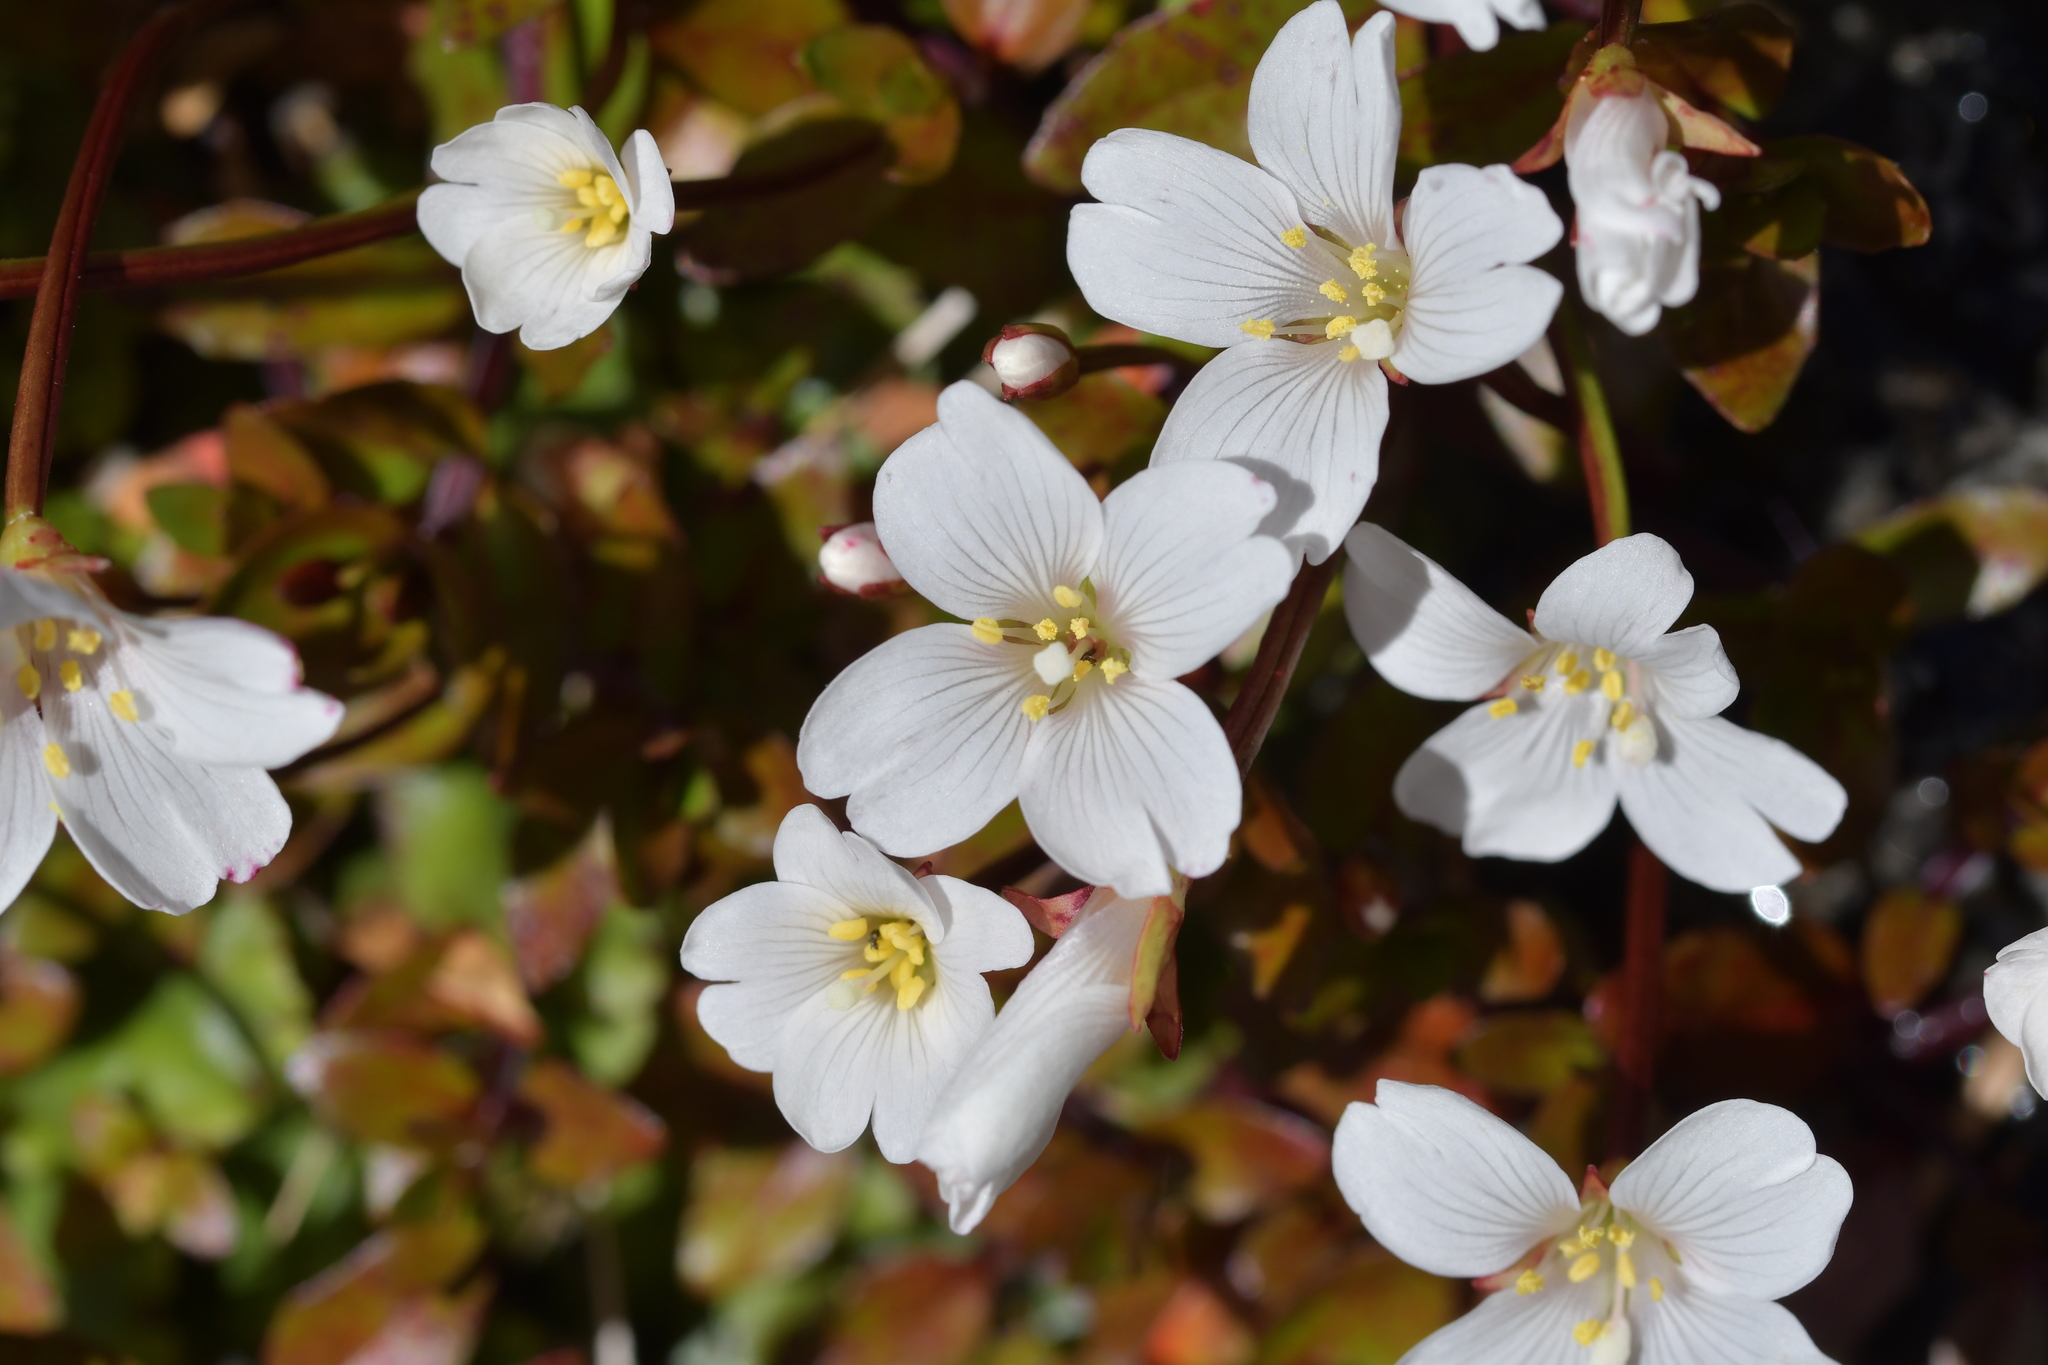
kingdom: Plantae
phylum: Tracheophyta
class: Magnoliopsida
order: Myrtales
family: Onagraceae
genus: Epilobium
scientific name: Epilobium macropus
